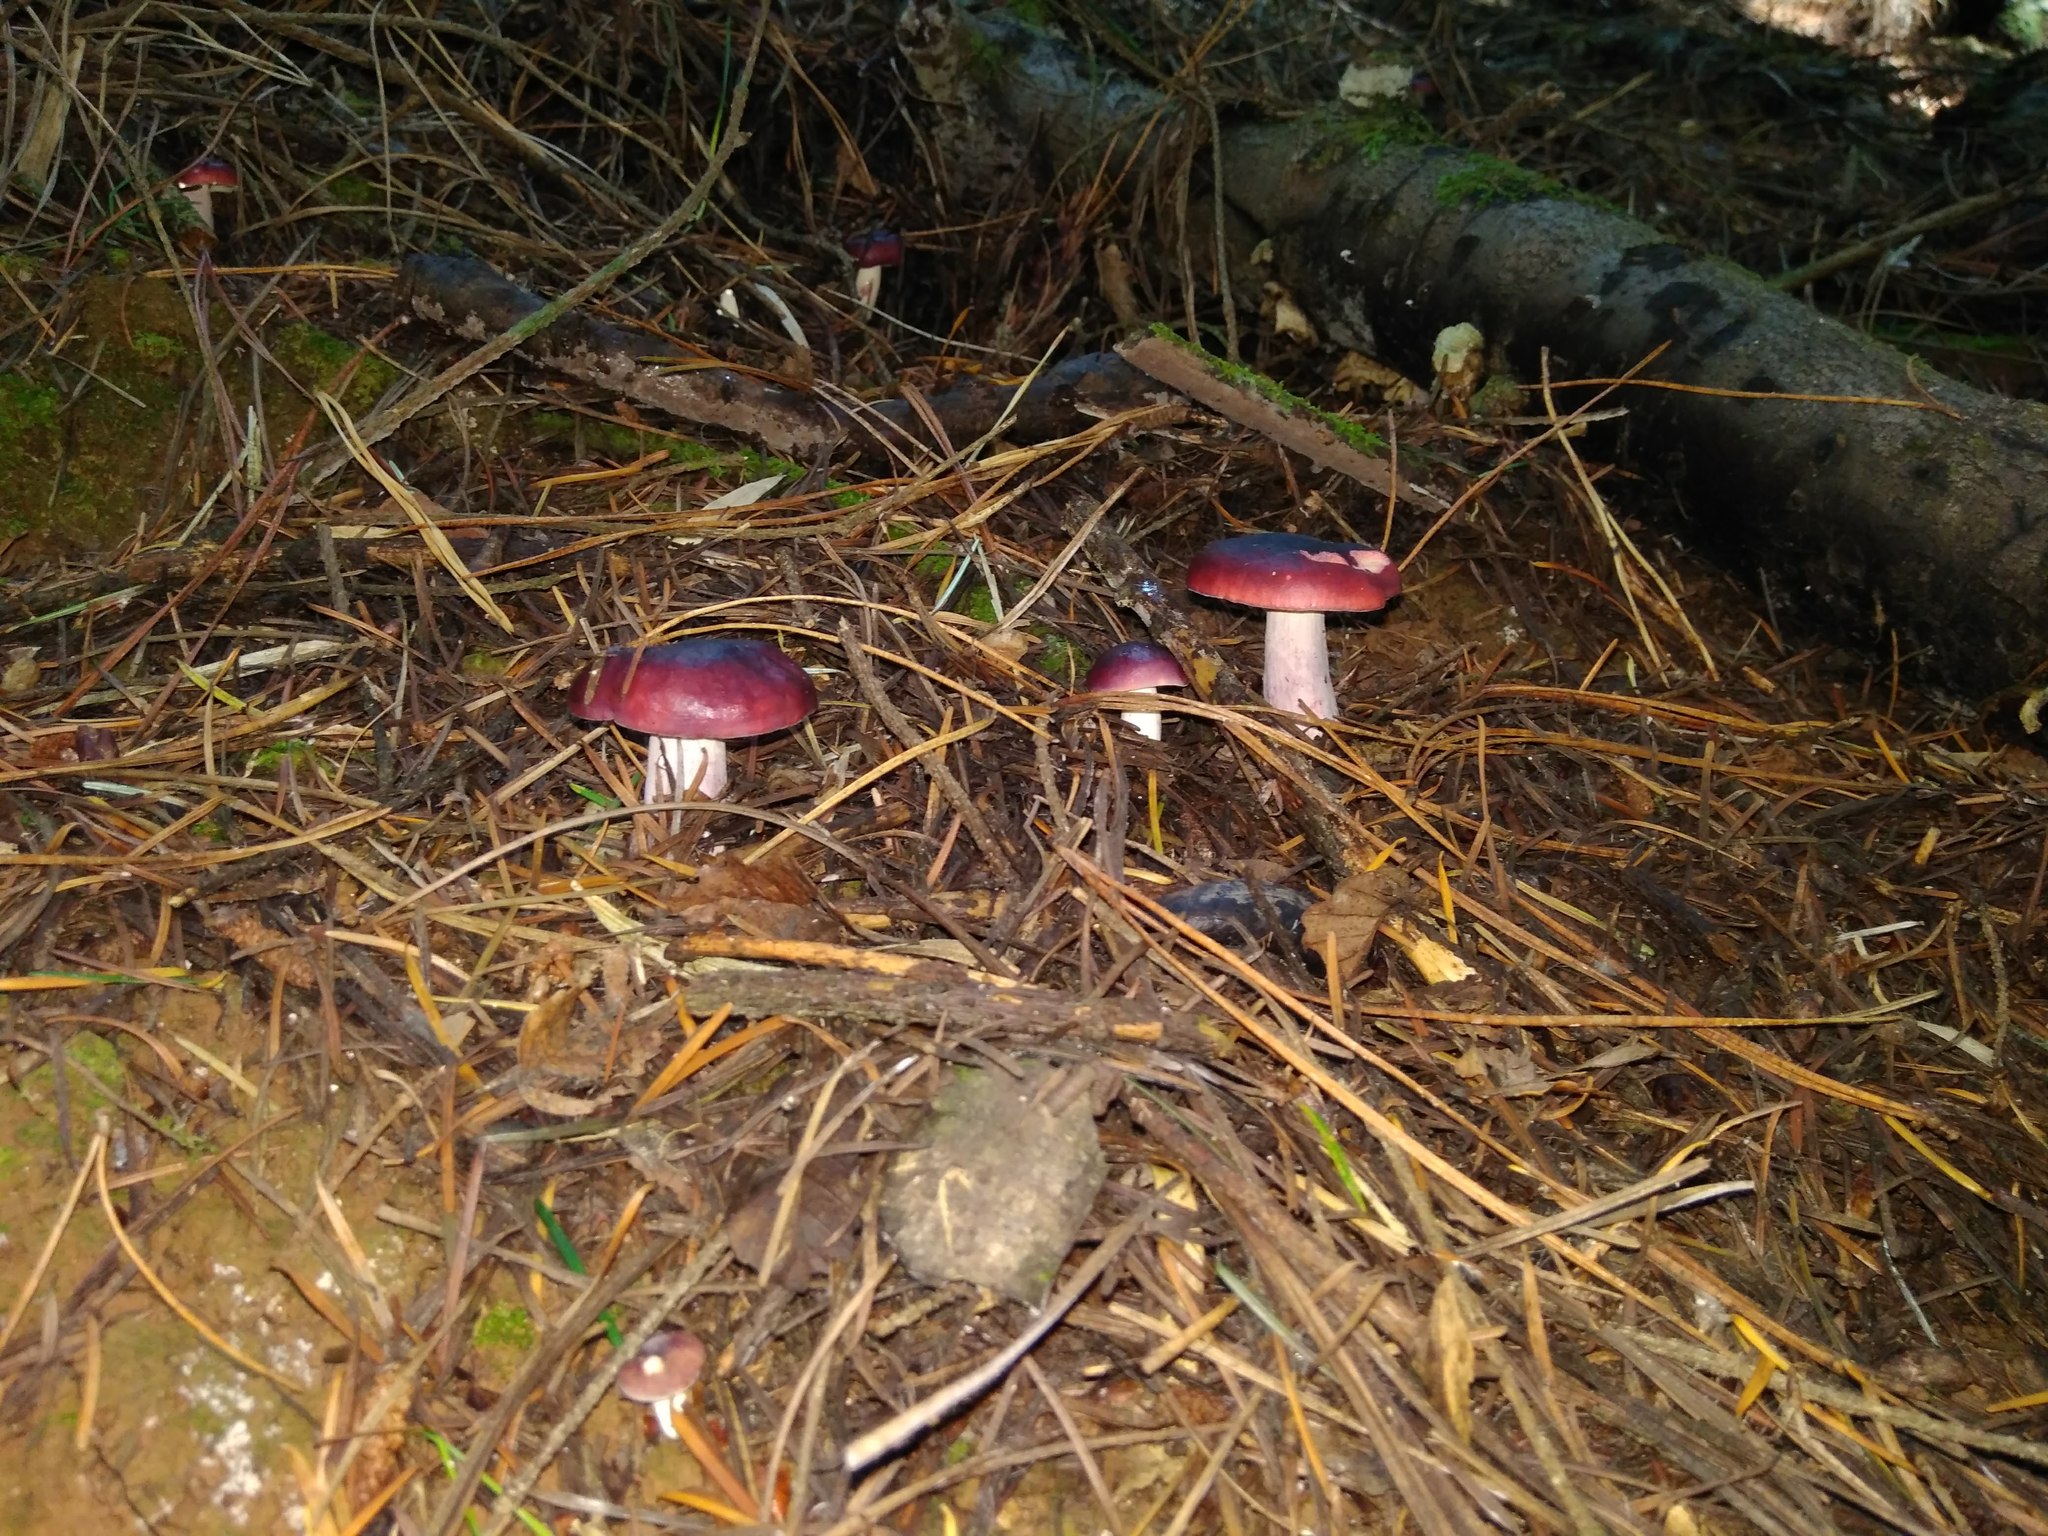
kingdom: Fungi
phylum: Basidiomycota
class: Agaricomycetes
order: Russulales
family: Russulaceae
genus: Russula
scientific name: Russula sardonia
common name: Primrose brittlegill
